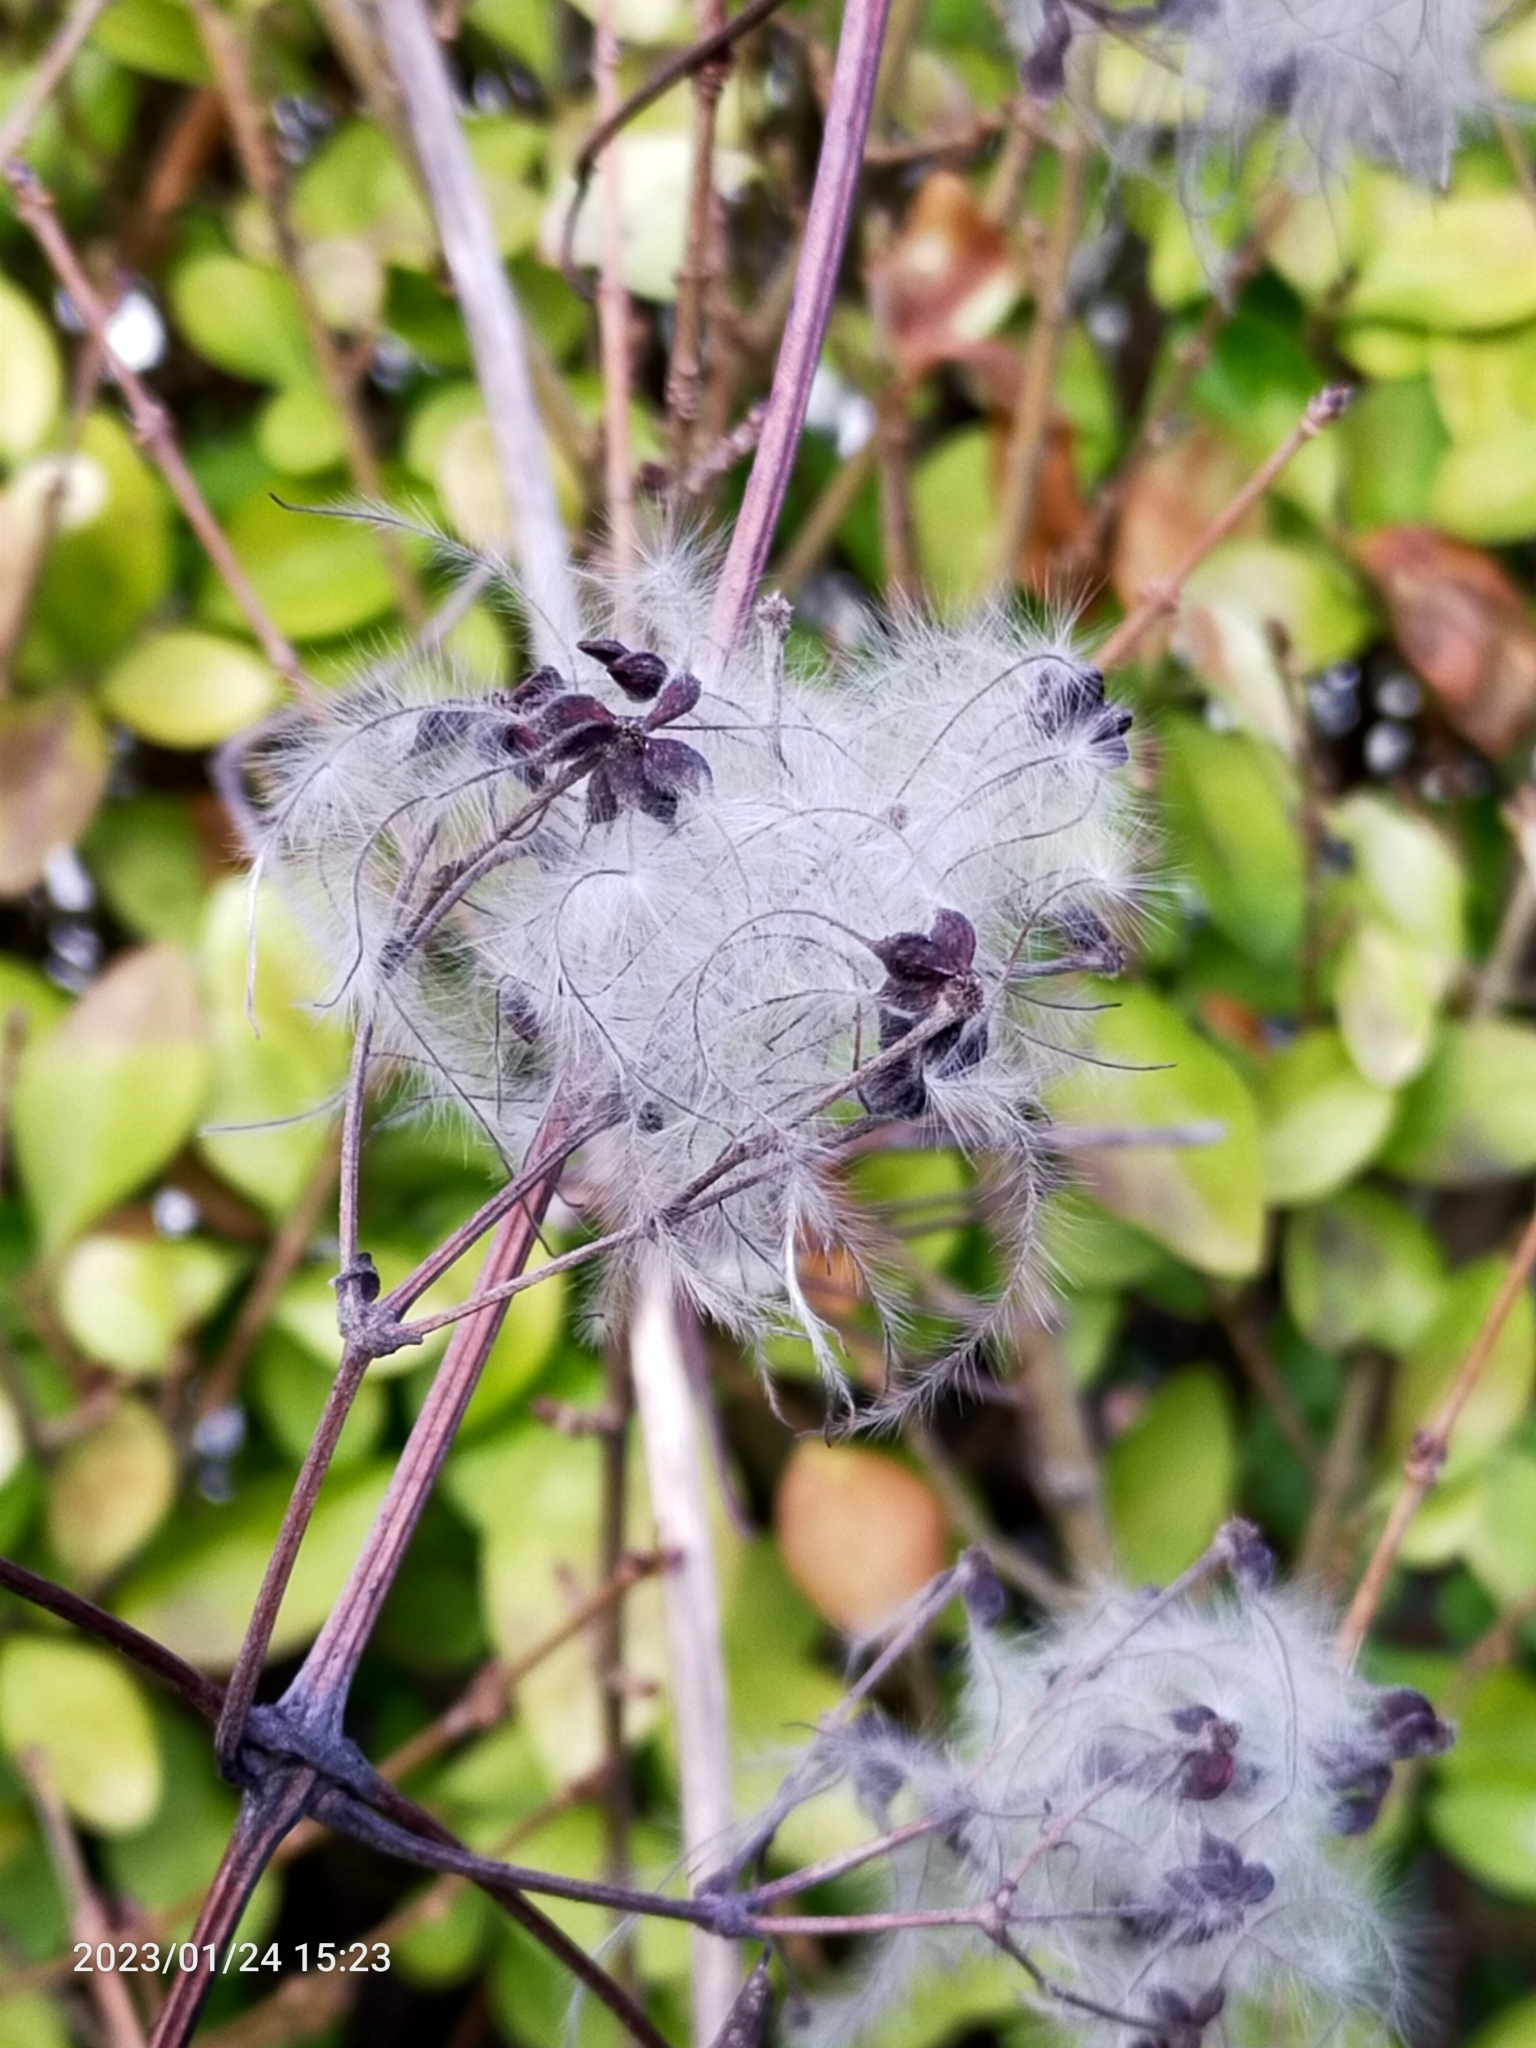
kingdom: Plantae
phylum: Tracheophyta
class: Magnoliopsida
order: Ranunculales
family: Ranunculaceae
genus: Clematis
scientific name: Clematis vitalba
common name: Evergreen clematis
